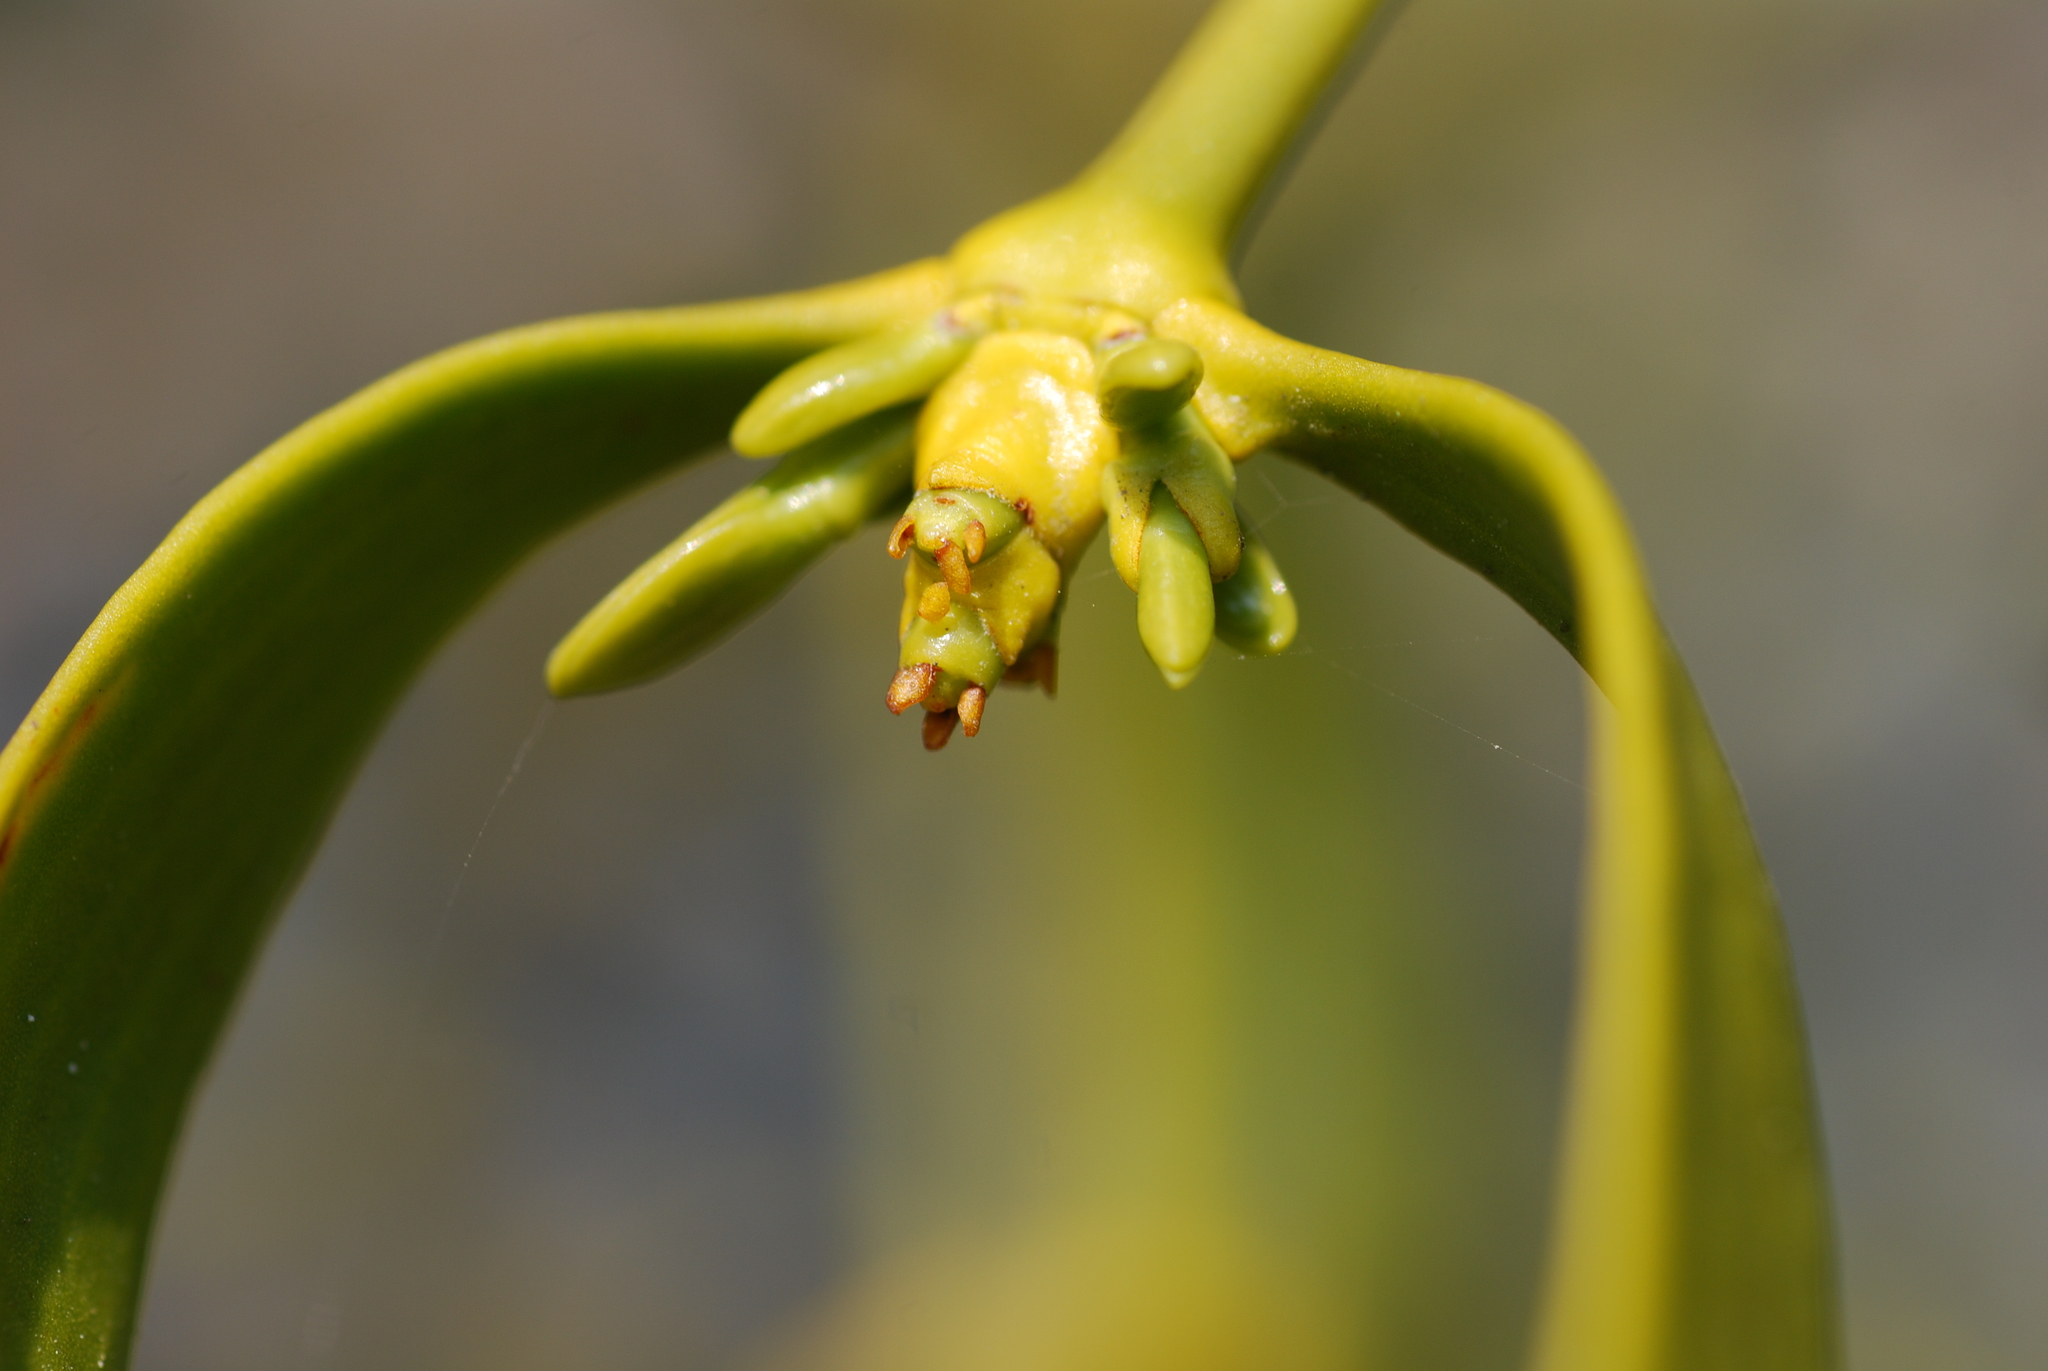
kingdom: Plantae
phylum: Tracheophyta
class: Magnoliopsida
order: Santalales
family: Viscaceae
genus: Viscum
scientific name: Viscum album
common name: Mistletoe
